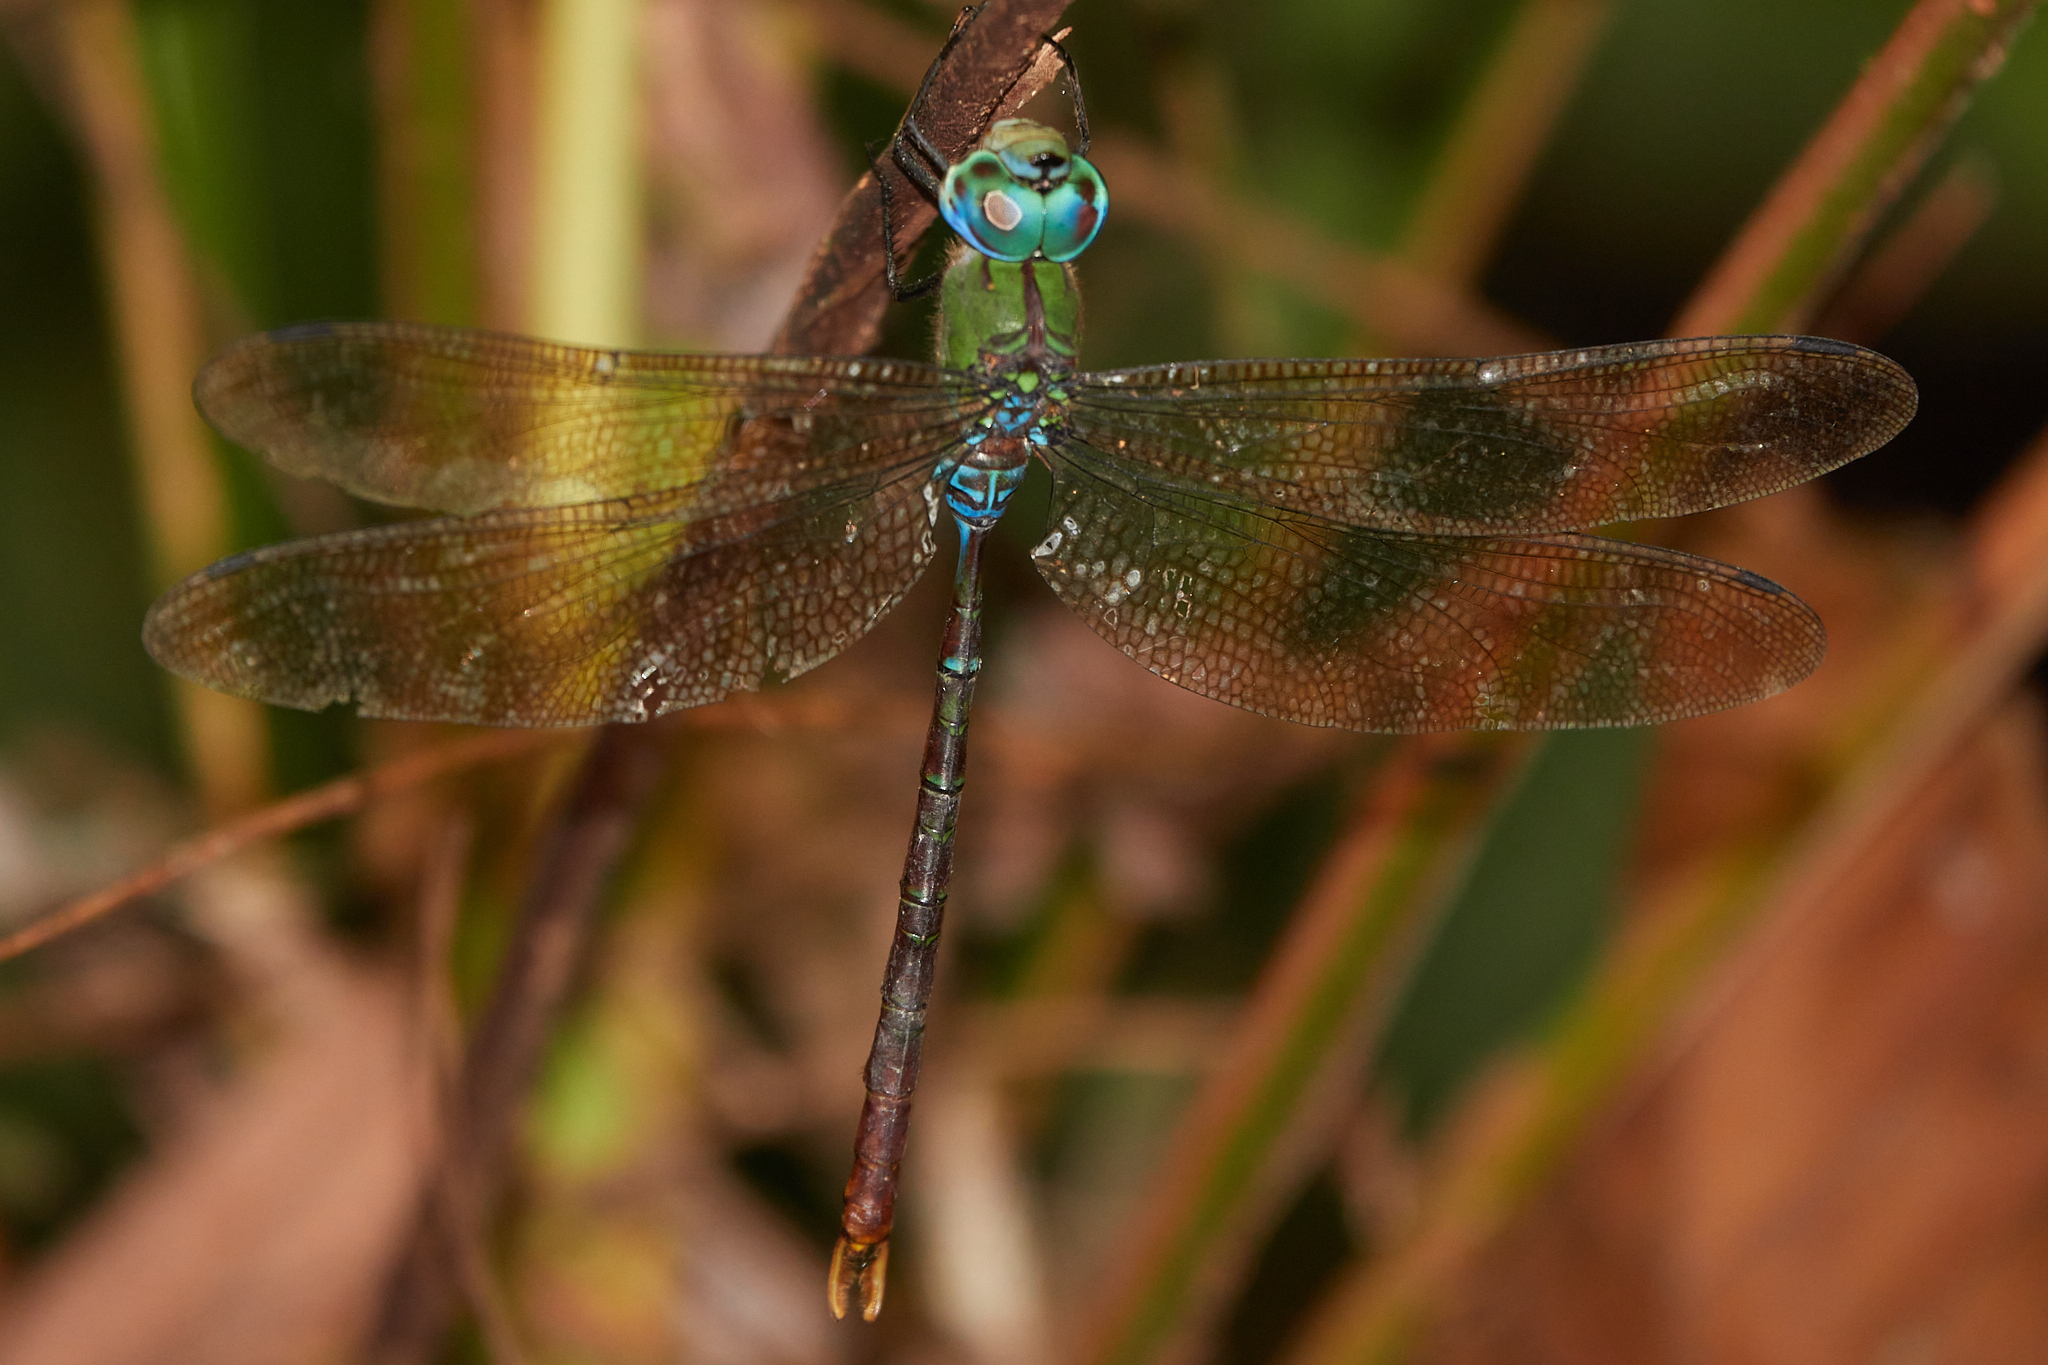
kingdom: Animalia
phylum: Arthropoda
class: Insecta
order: Odonata
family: Aeshnidae
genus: Gynacantha
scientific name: Gynacantha tibiata
